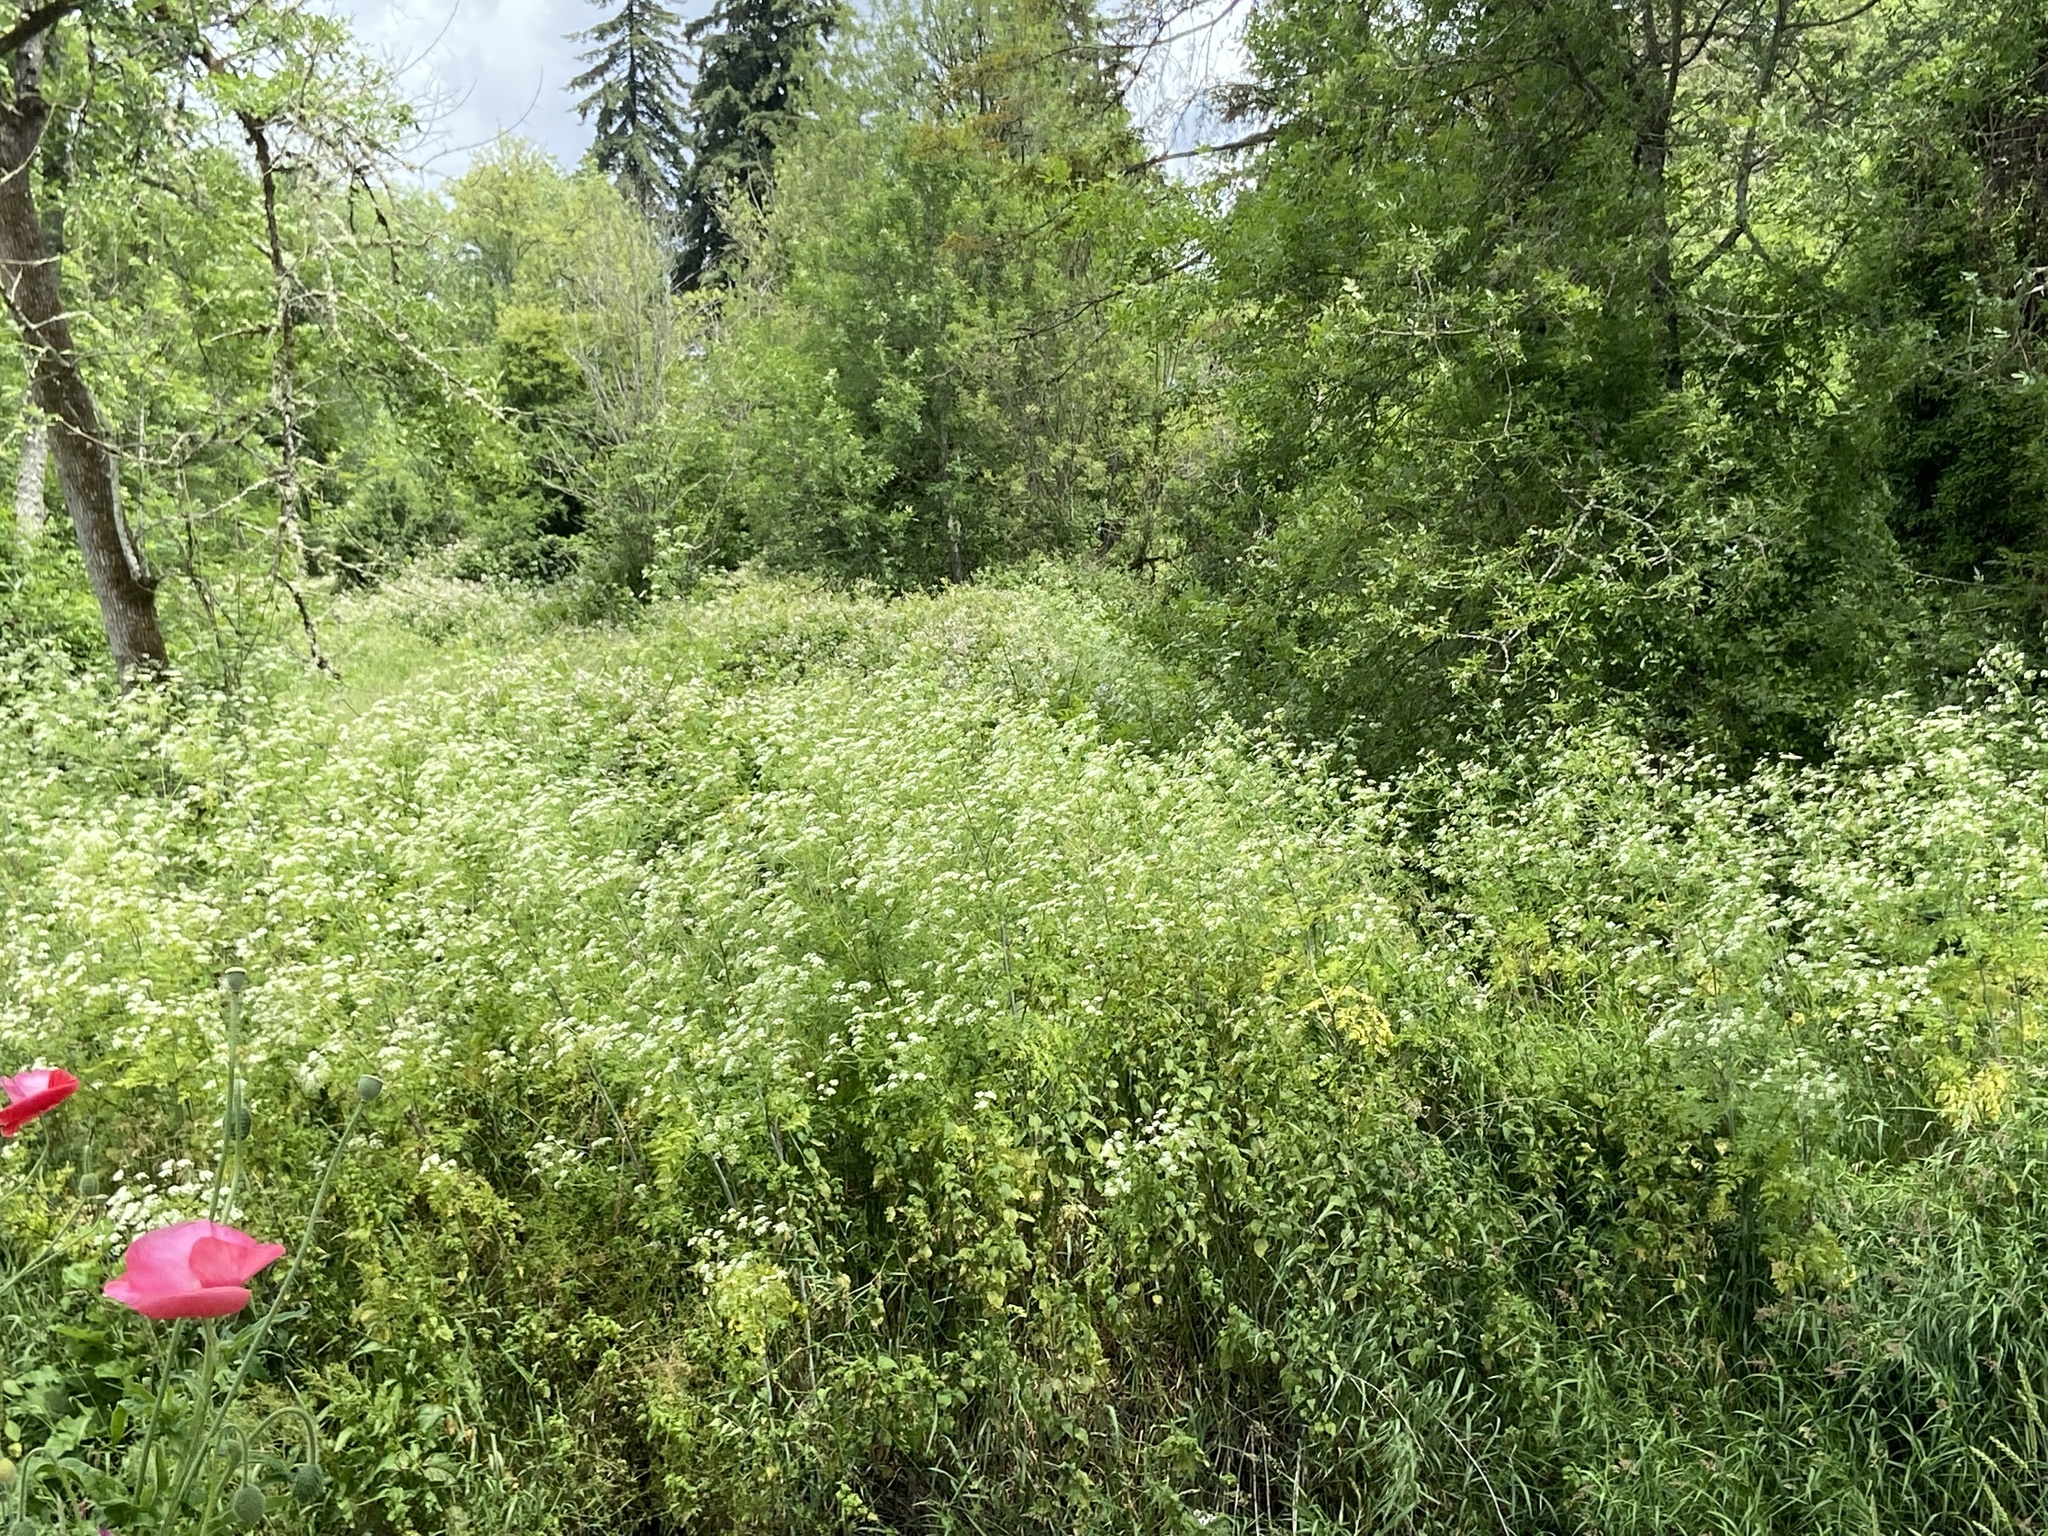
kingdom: Plantae
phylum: Tracheophyta
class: Magnoliopsida
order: Apiales
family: Apiaceae
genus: Conium
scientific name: Conium maculatum
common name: Hemlock
